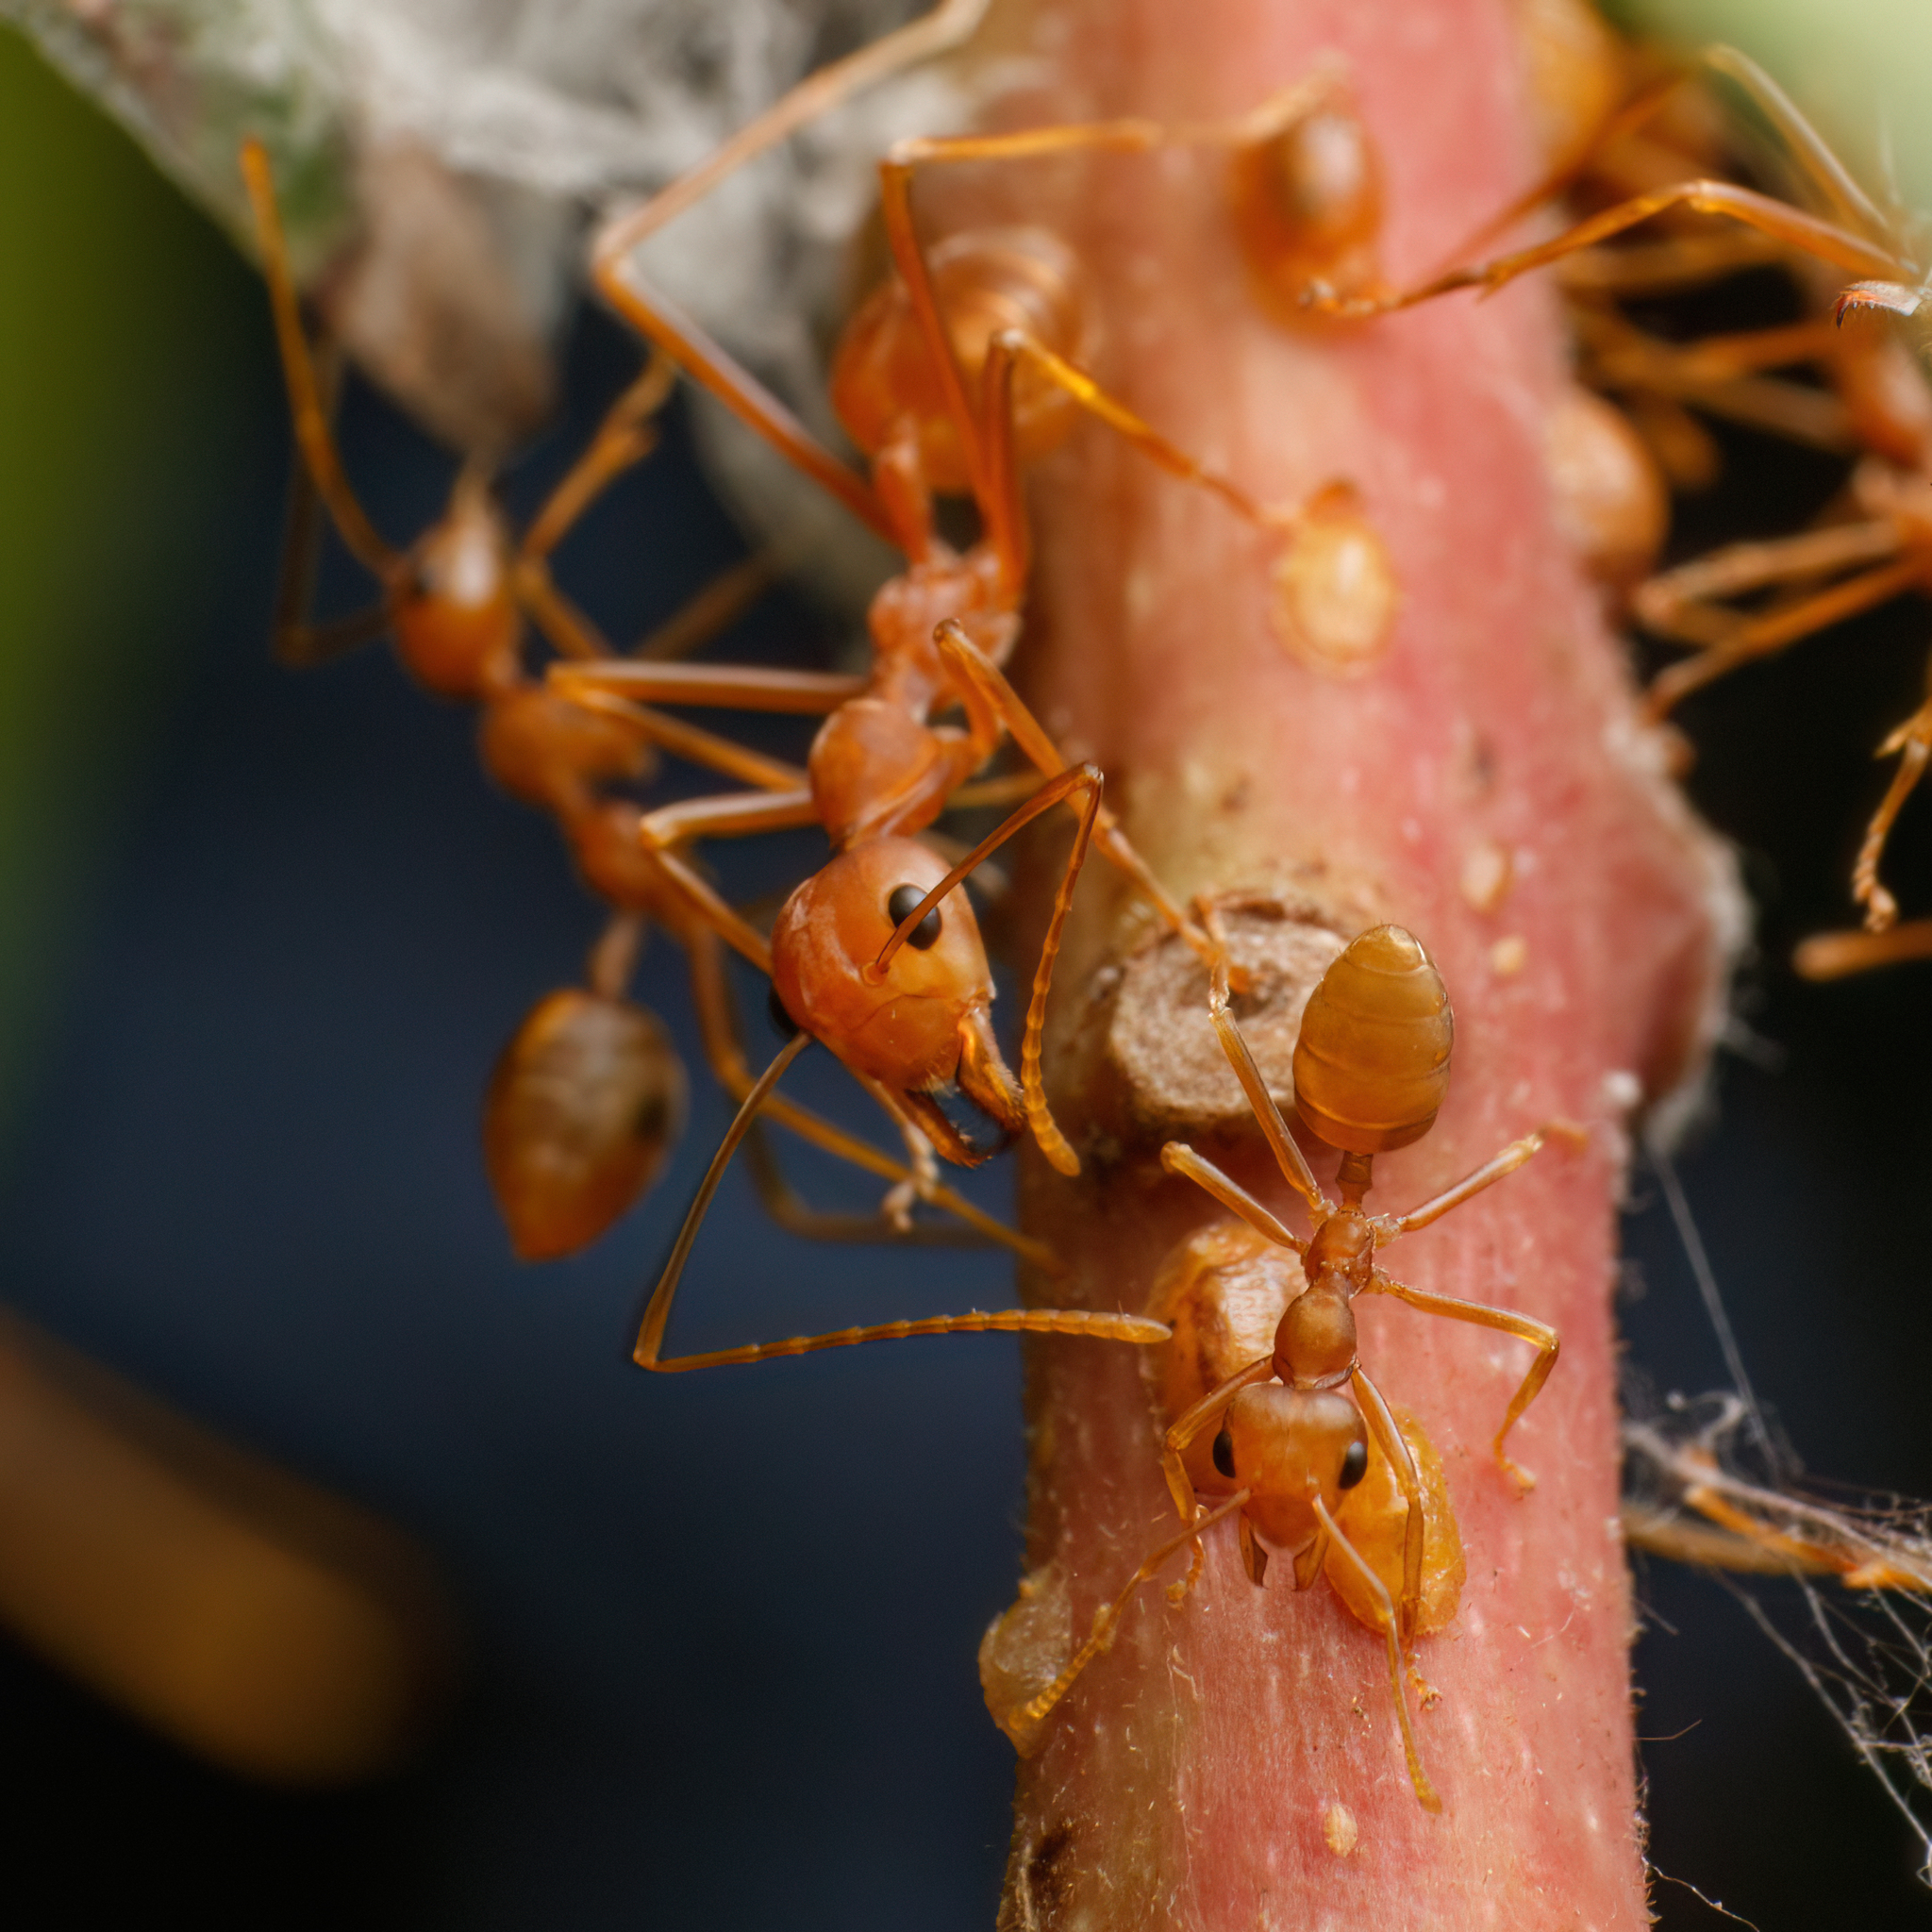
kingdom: Animalia
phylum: Arthropoda
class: Insecta
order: Hymenoptera
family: Formicidae
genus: Oecophylla
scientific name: Oecophylla smaragdina
